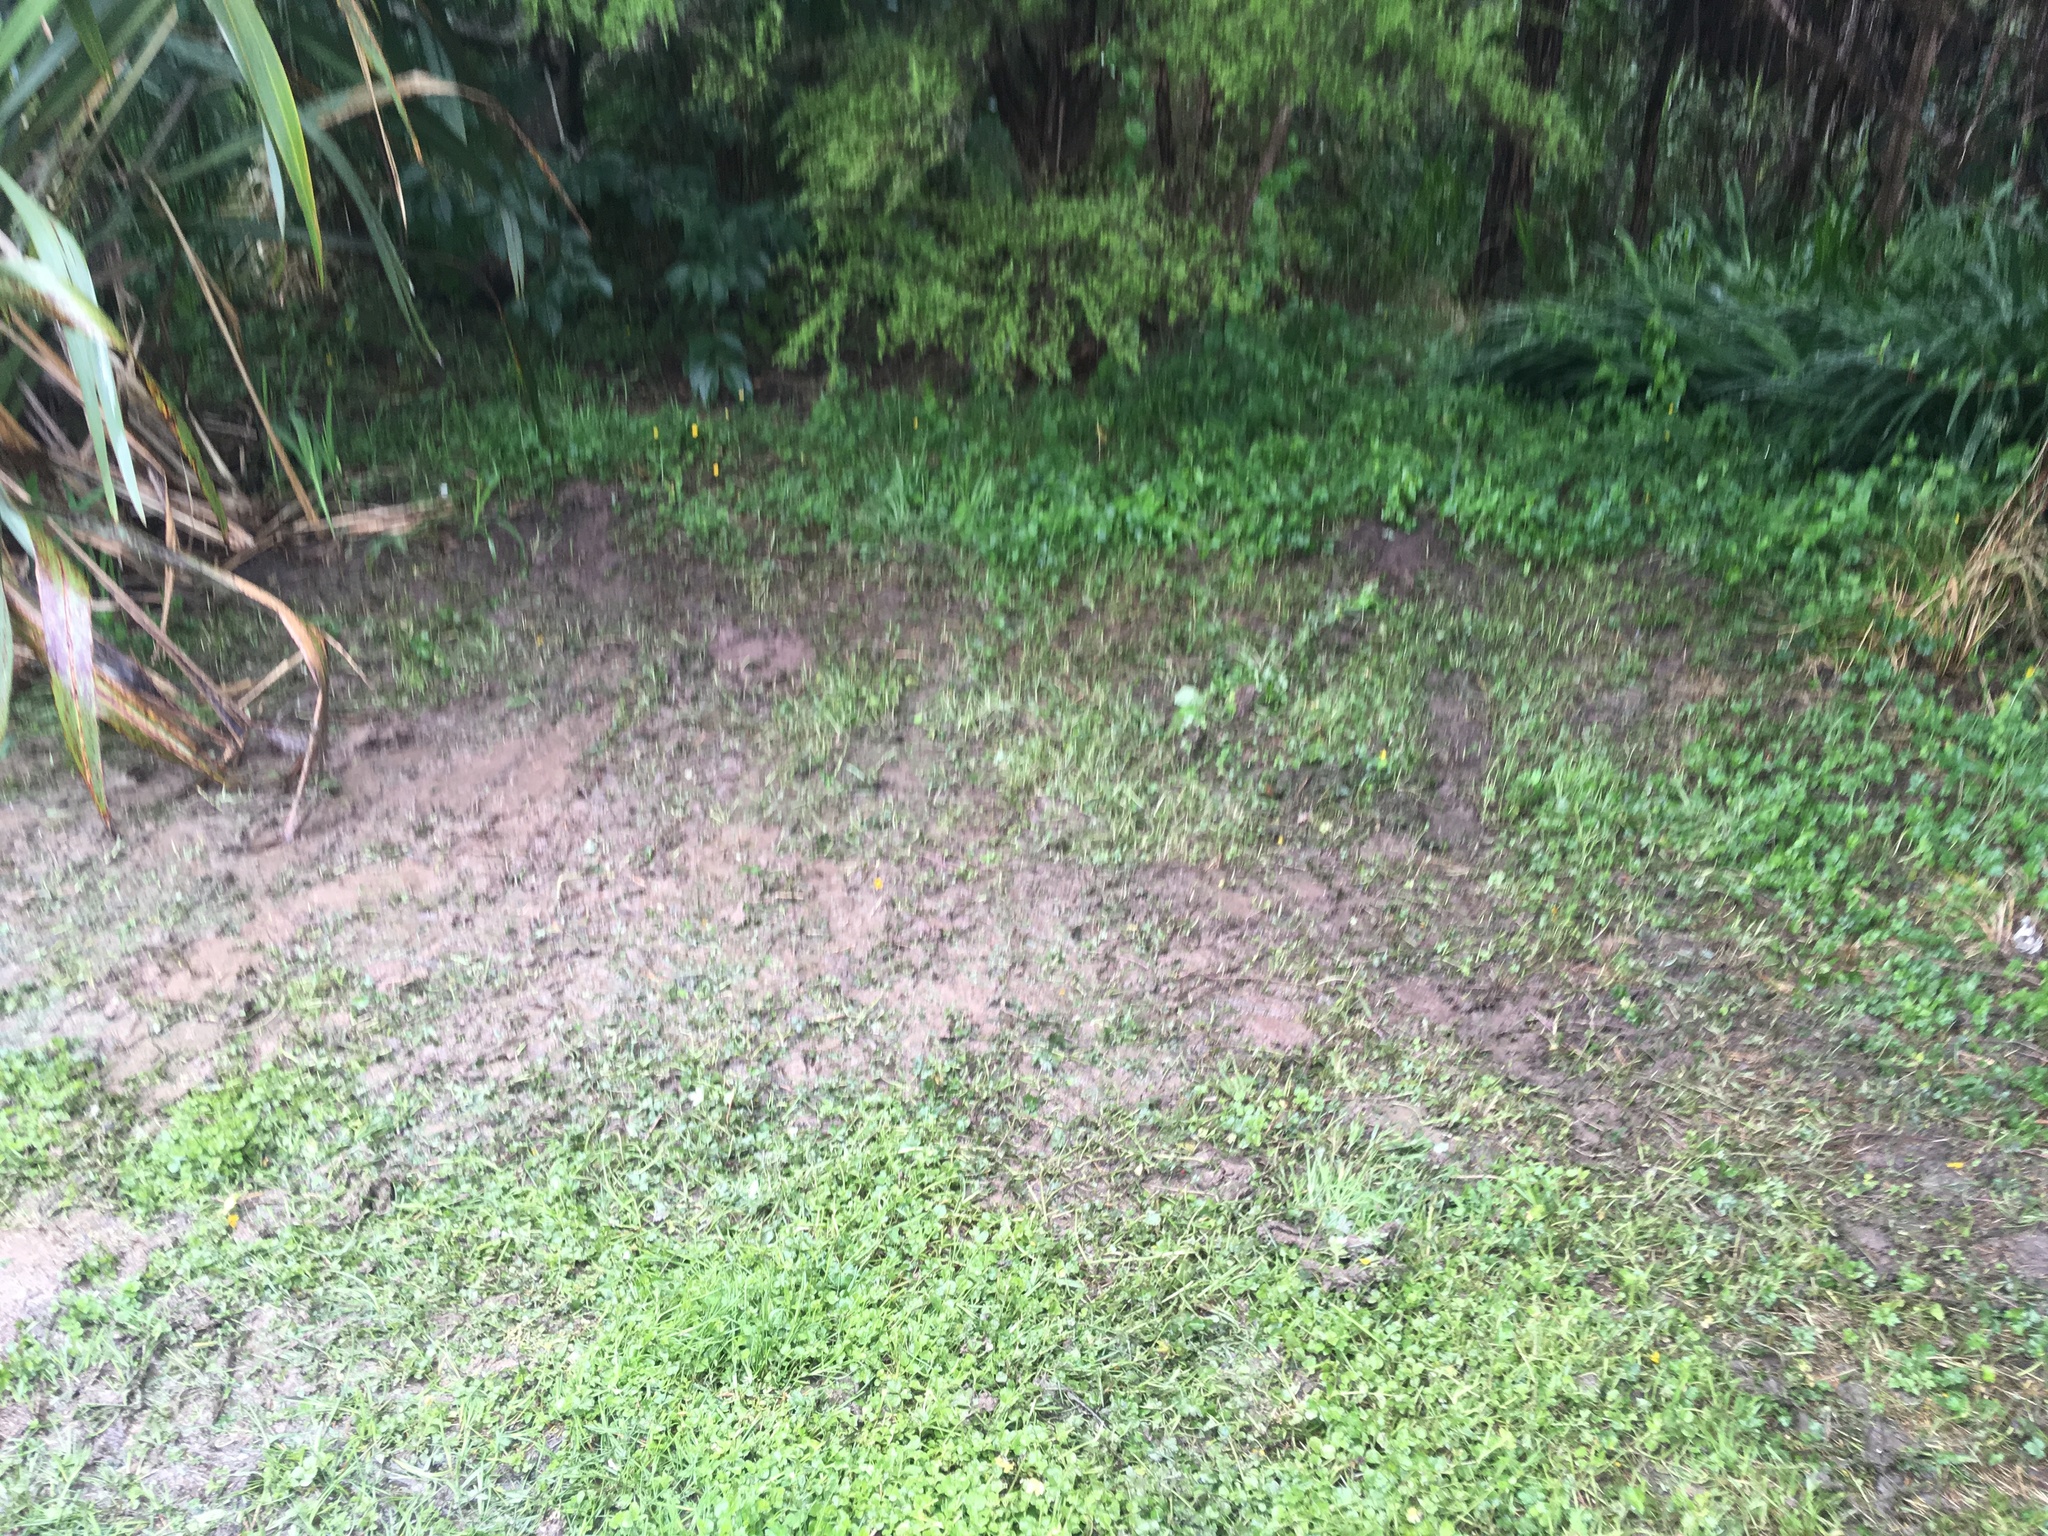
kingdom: Plantae
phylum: Tracheophyta
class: Magnoliopsida
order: Ranunculales
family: Ranunculaceae
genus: Ranunculus
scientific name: Ranunculus repens
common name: Creeping buttercup
